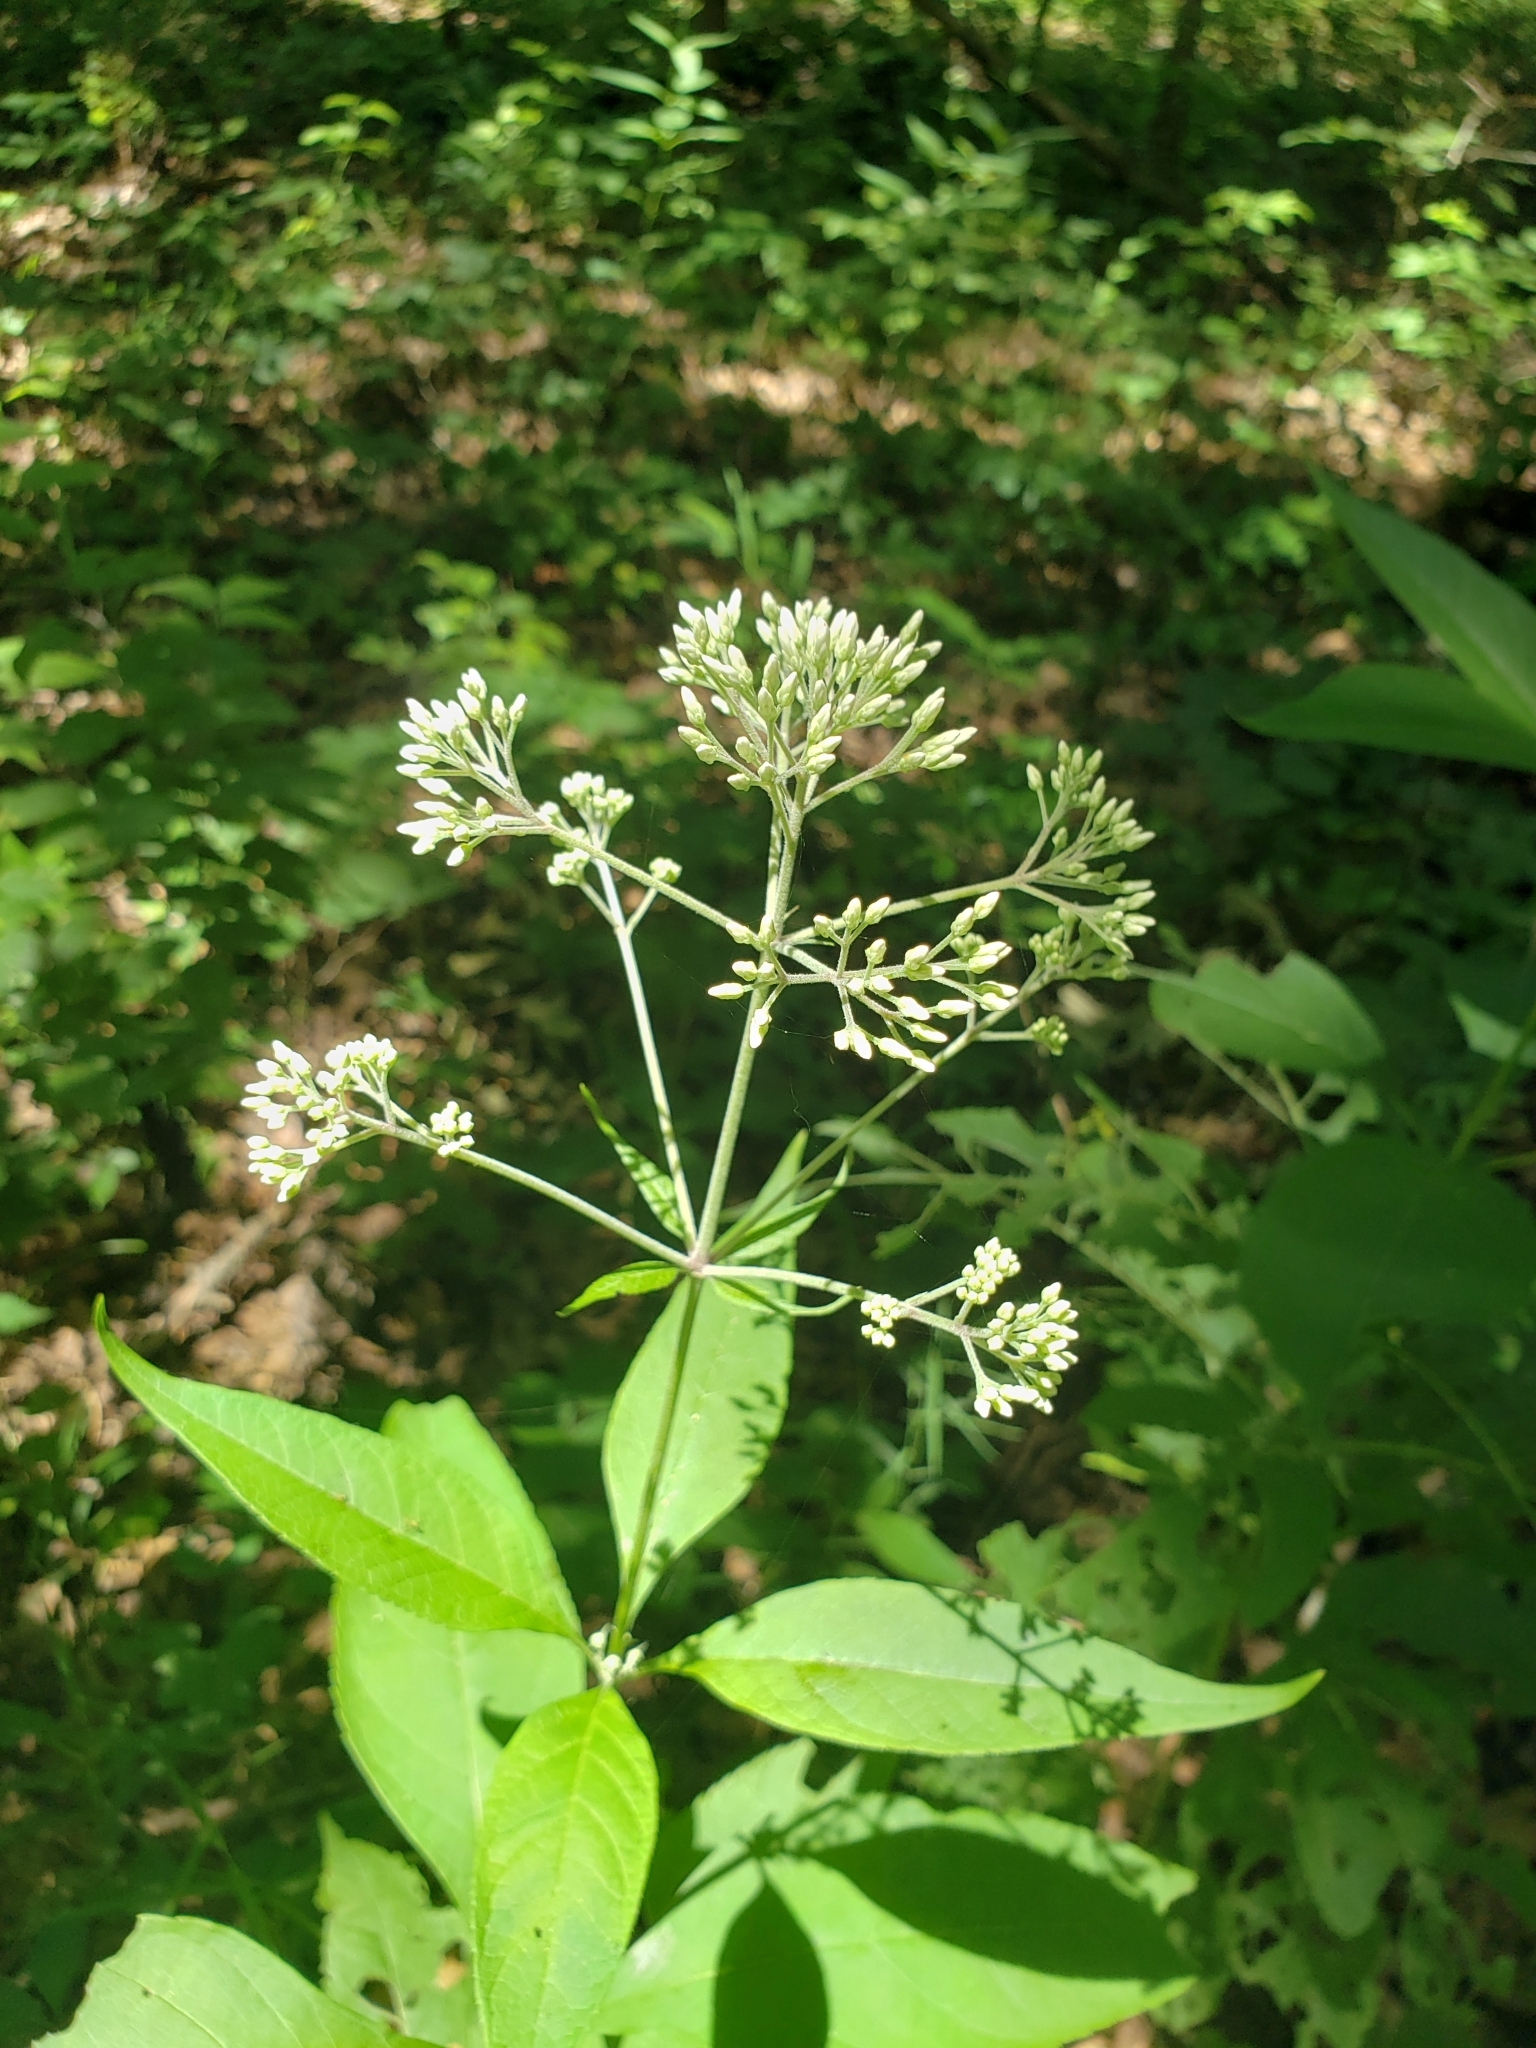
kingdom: Plantae
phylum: Tracheophyta
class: Magnoliopsida
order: Asterales
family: Asteraceae
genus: Eutrochium
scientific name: Eutrochium purpureum
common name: Gravelroot
